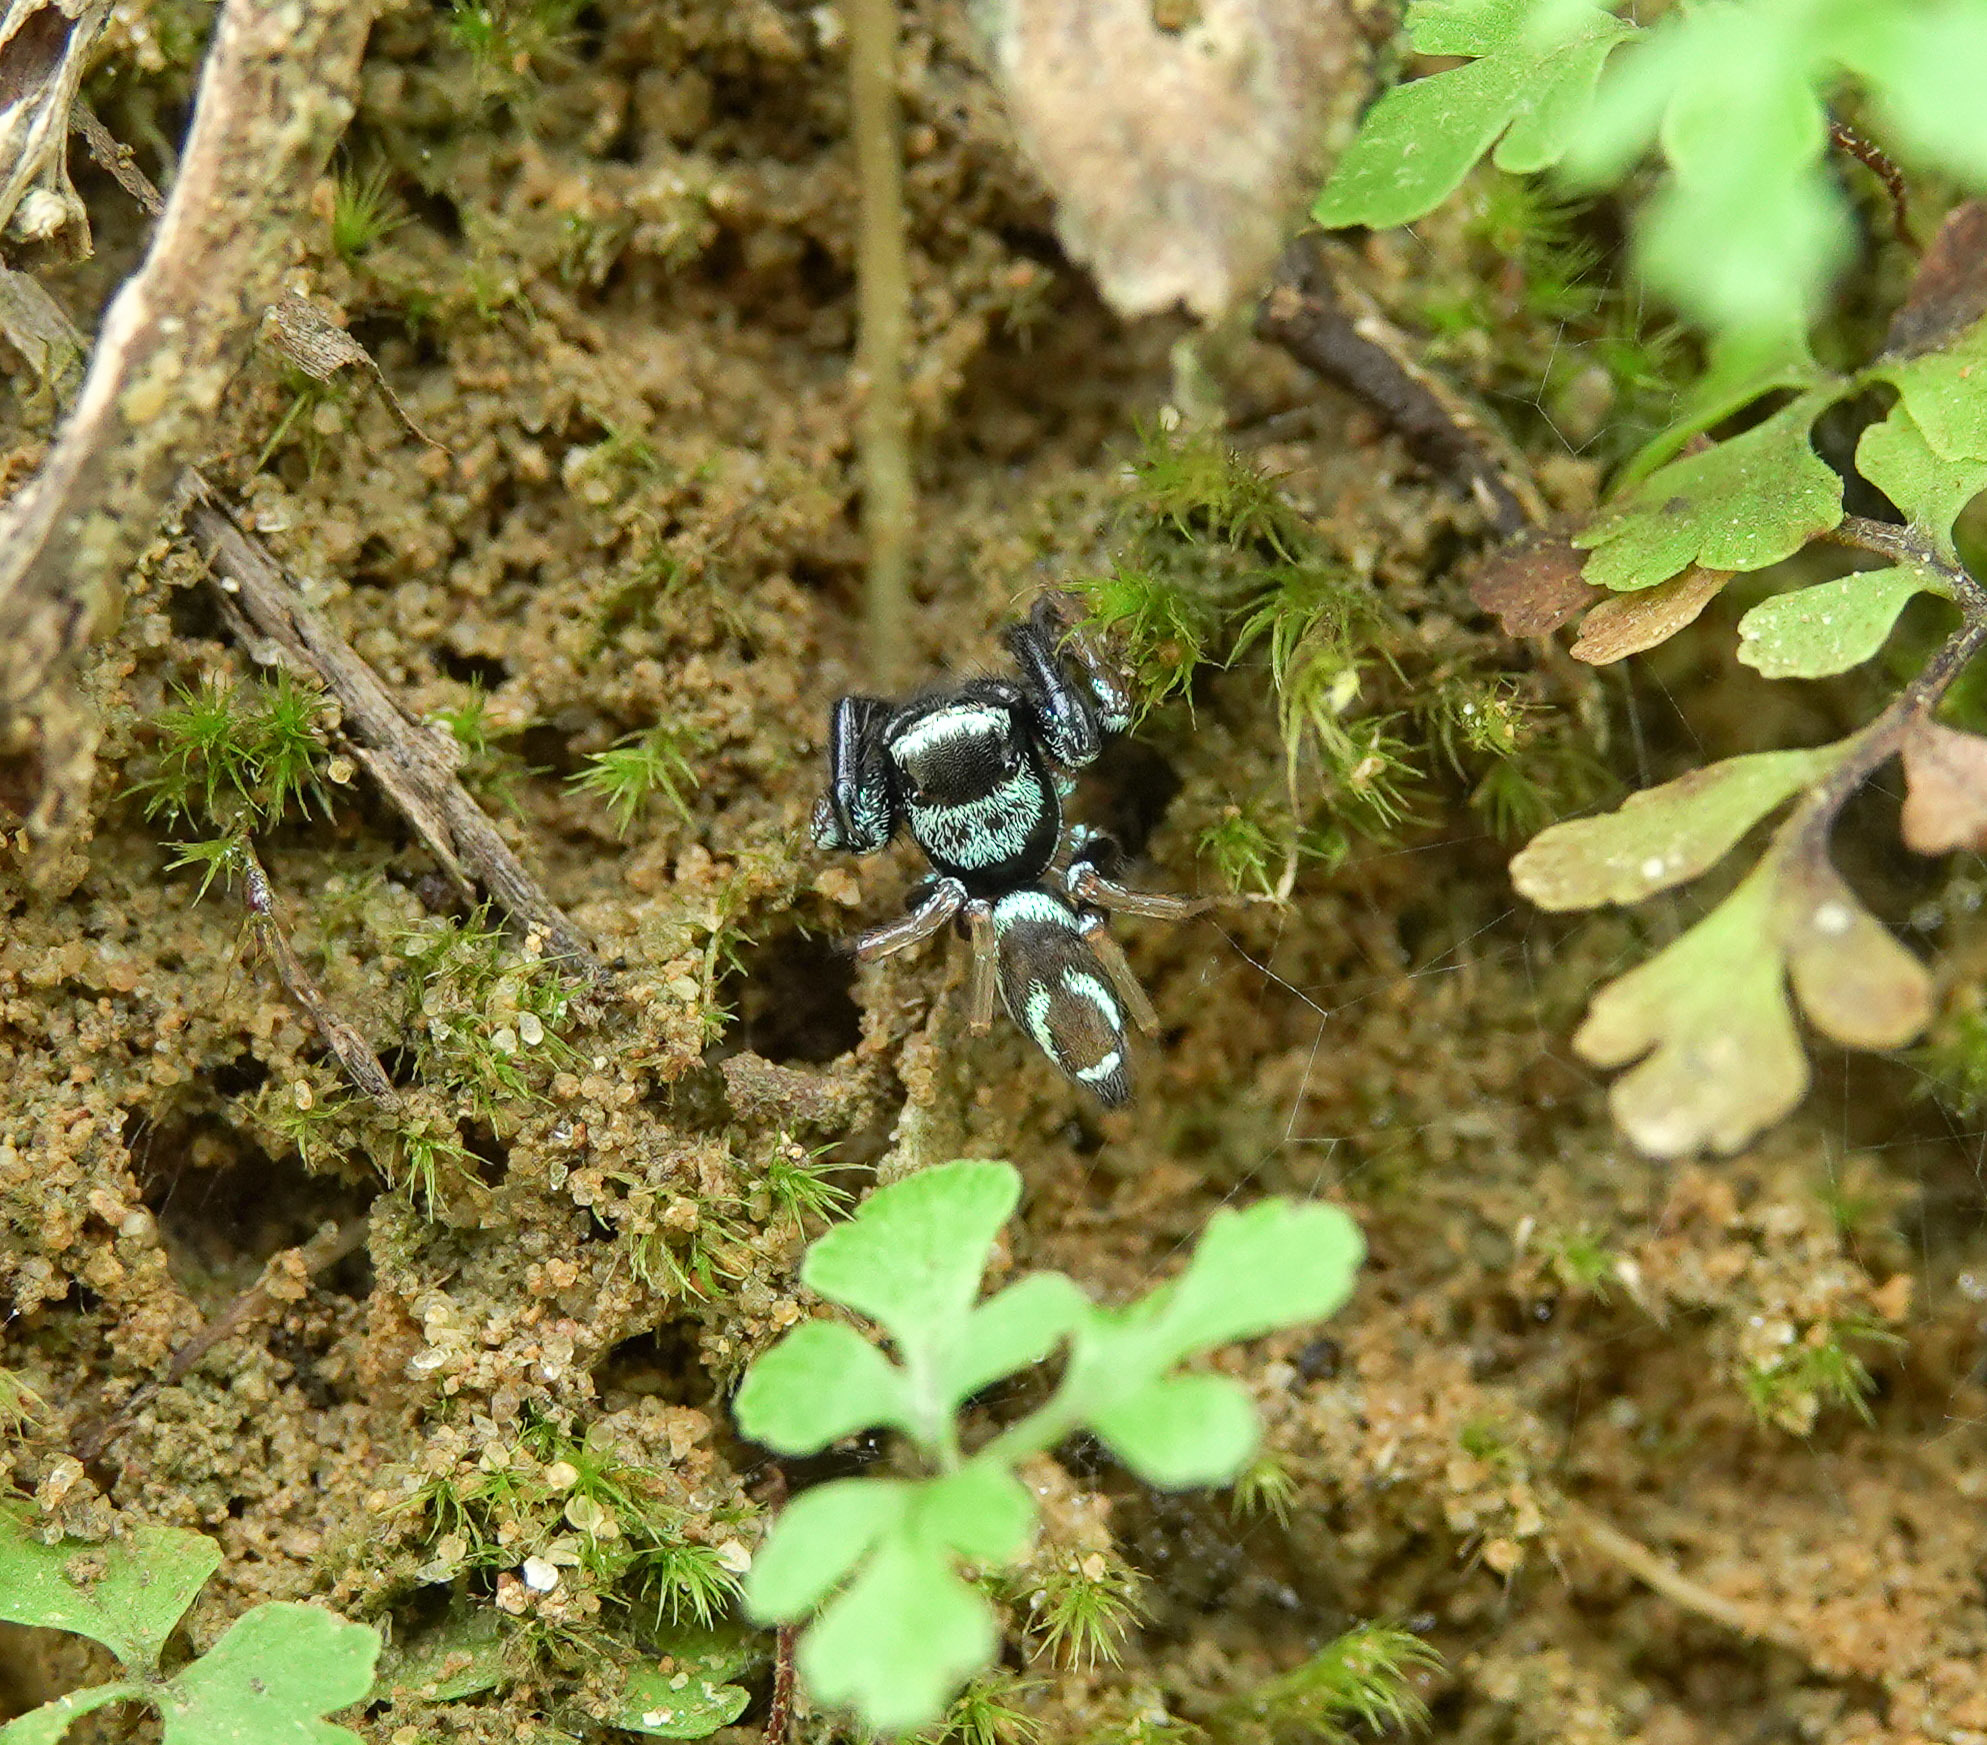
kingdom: Animalia
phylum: Arthropoda
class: Arachnida
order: Araneae
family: Salticidae
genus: Thiania
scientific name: Thiania bhamoensis
